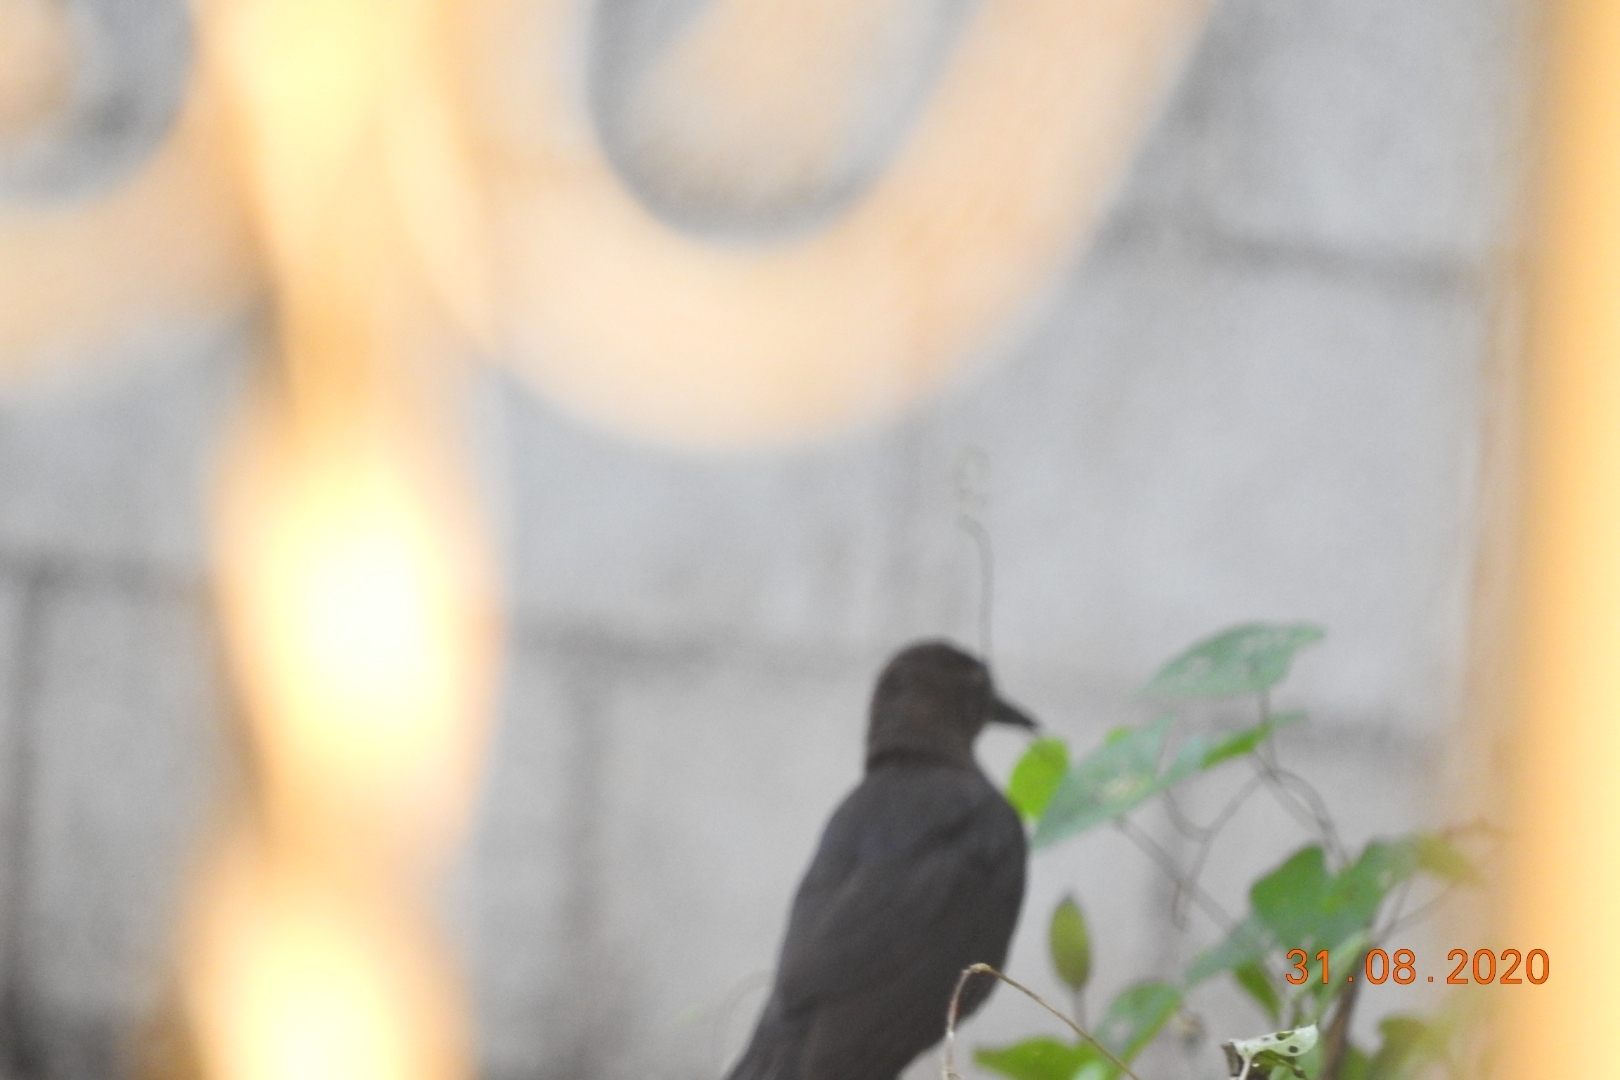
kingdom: Animalia
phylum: Chordata
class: Aves
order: Passeriformes
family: Icteridae
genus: Quiscalus
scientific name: Quiscalus mexicanus
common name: Great-tailed grackle
